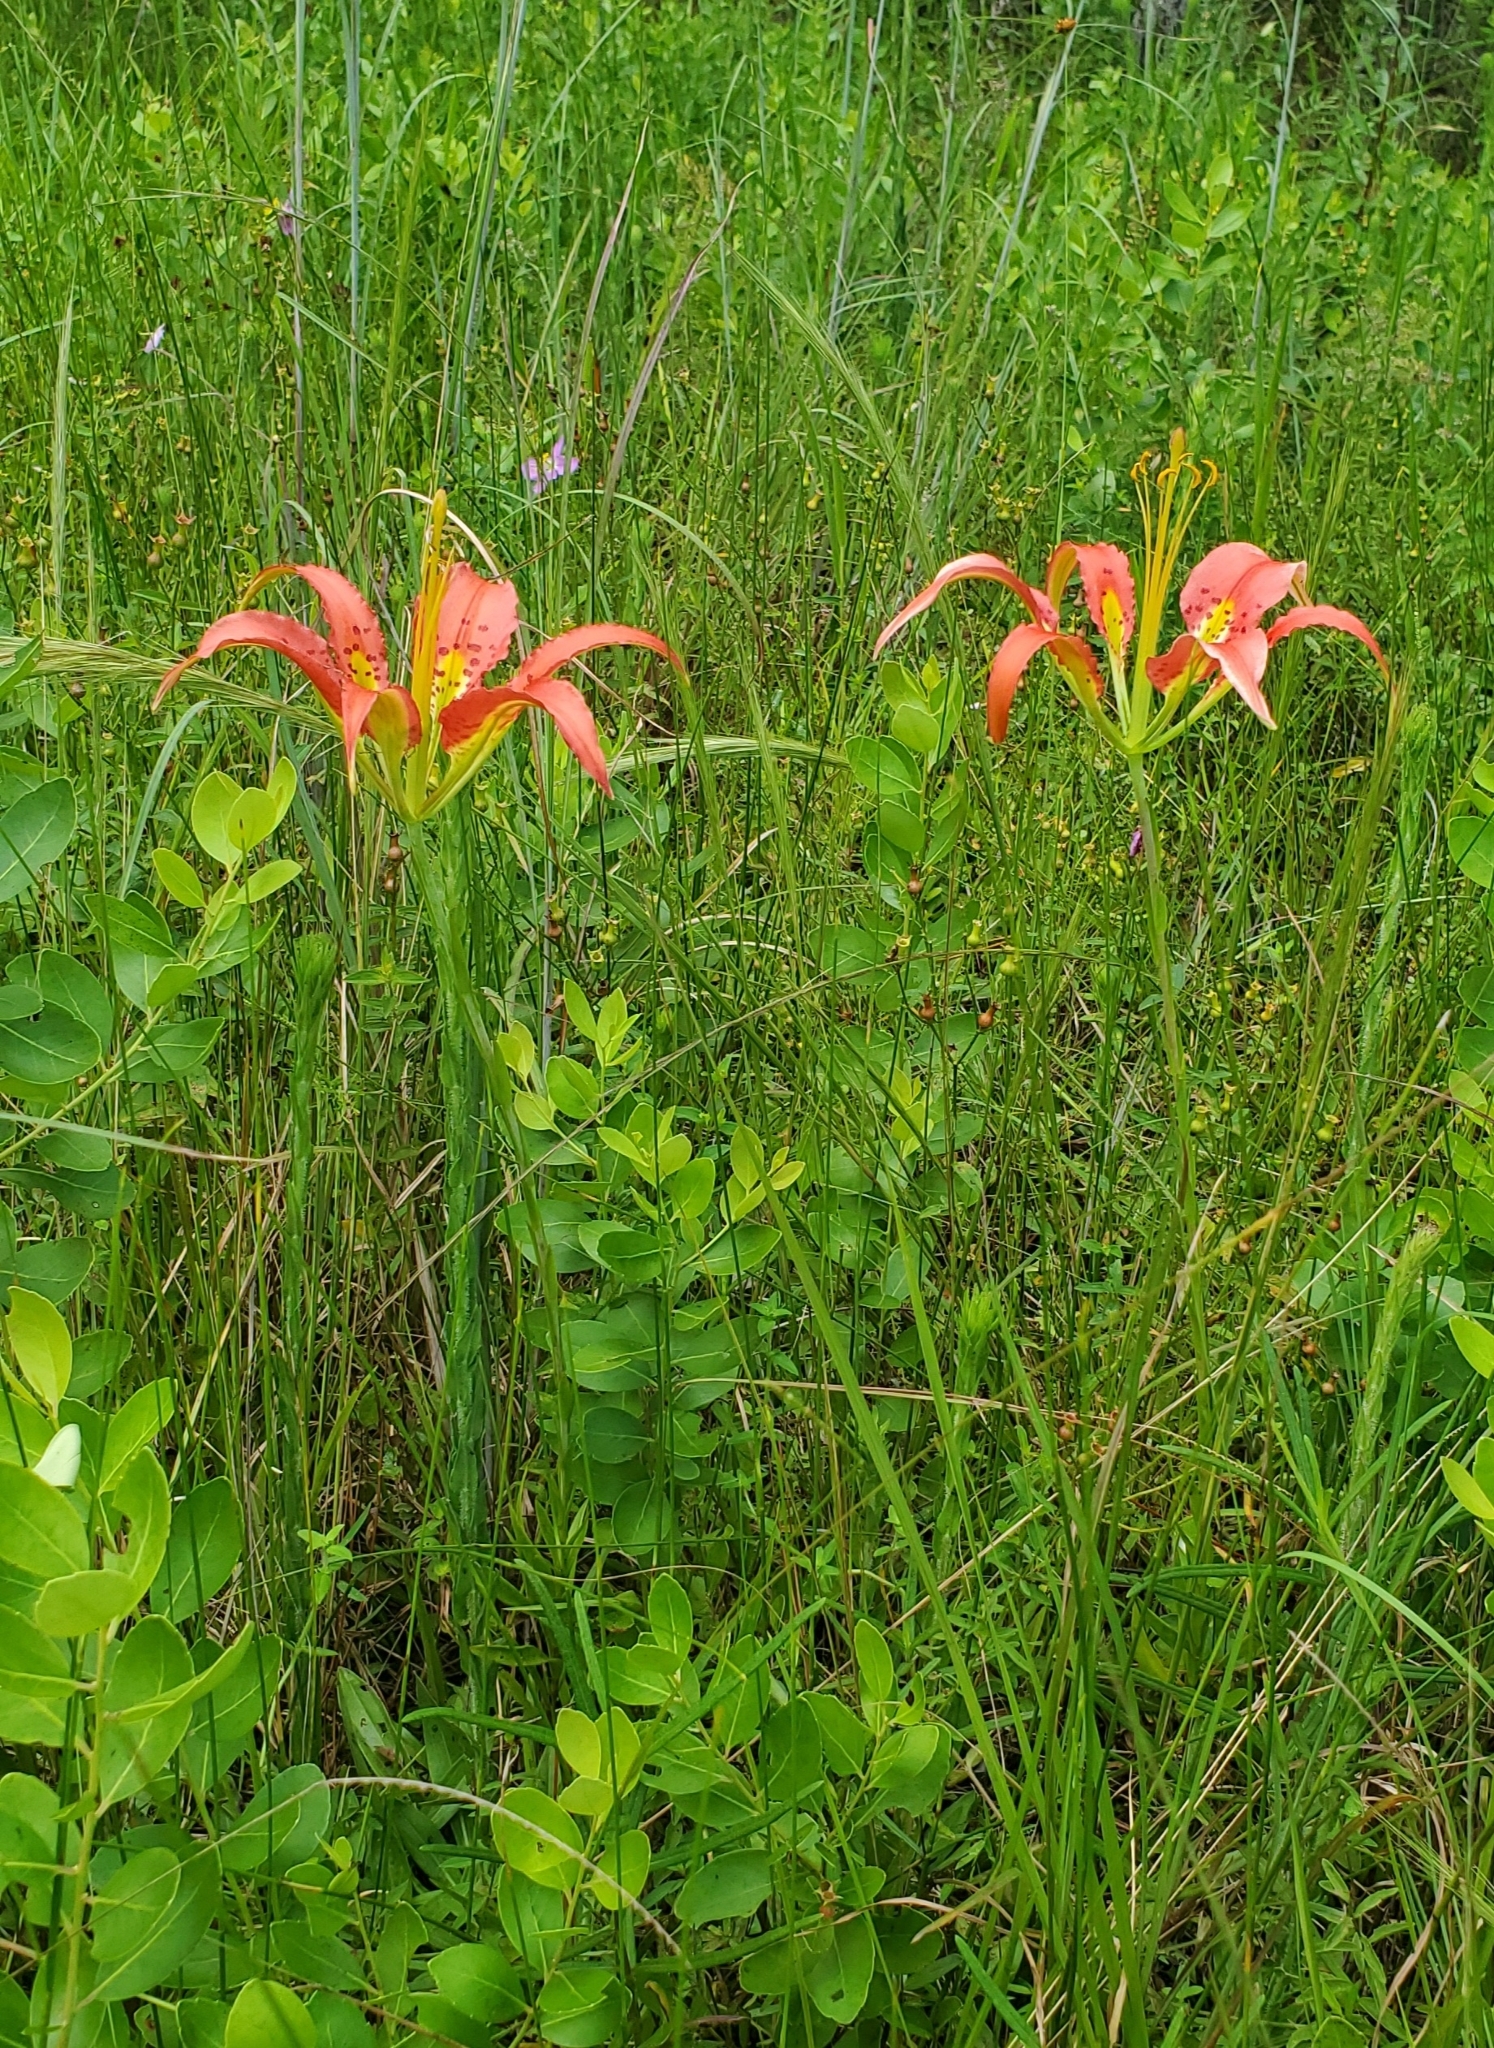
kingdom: Plantae
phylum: Tracheophyta
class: Liliopsida
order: Liliales
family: Liliaceae
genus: Lilium
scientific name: Lilium catesbaei
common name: Catesby's lily
